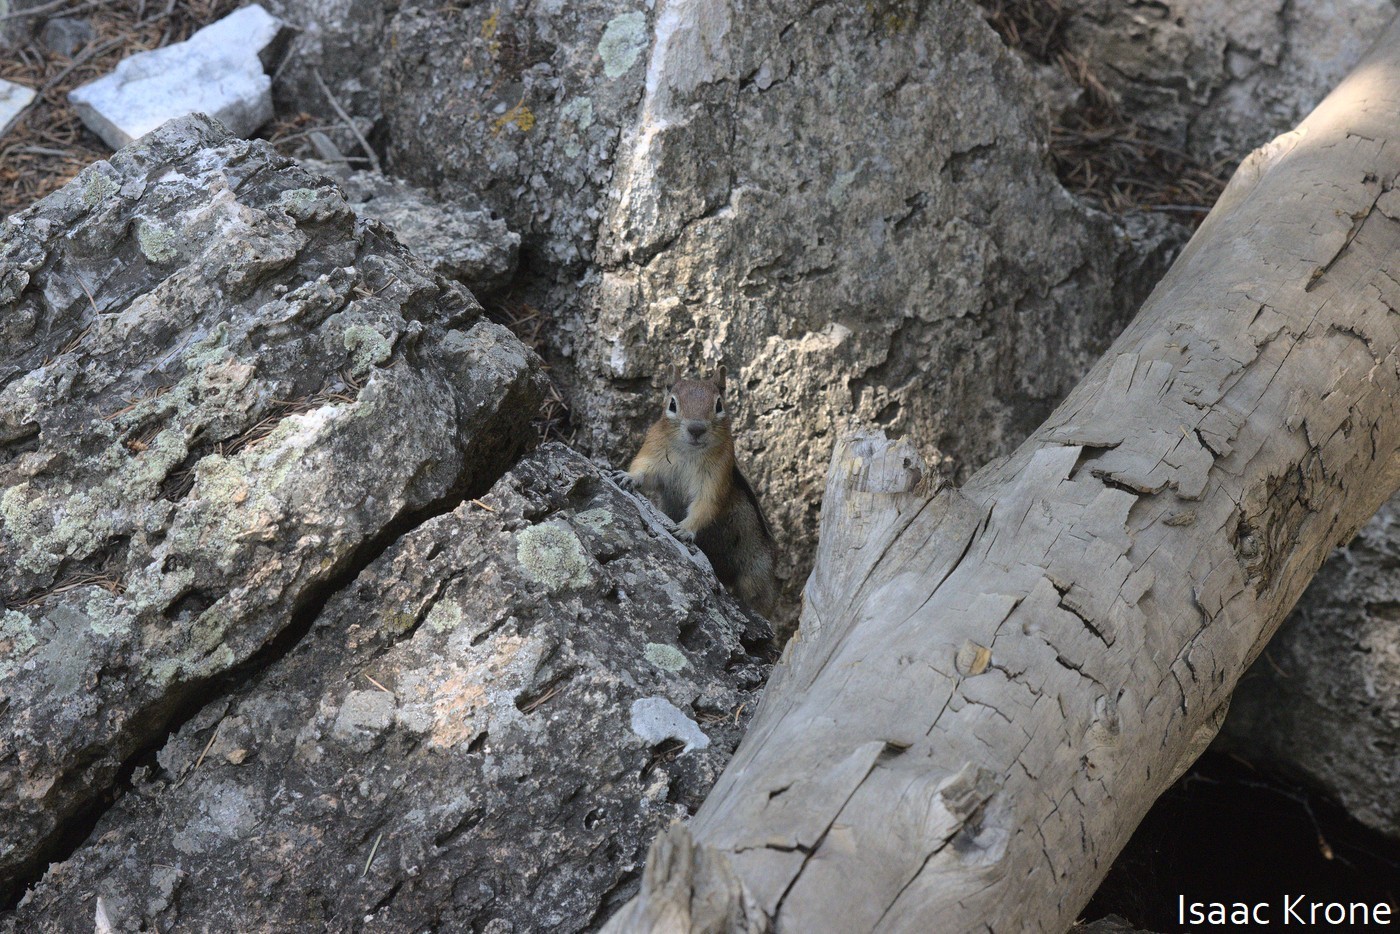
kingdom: Animalia
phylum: Chordata
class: Mammalia
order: Rodentia
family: Sciuridae
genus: Callospermophilus
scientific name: Callospermophilus lateralis
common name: Golden-mantled ground squirrel
